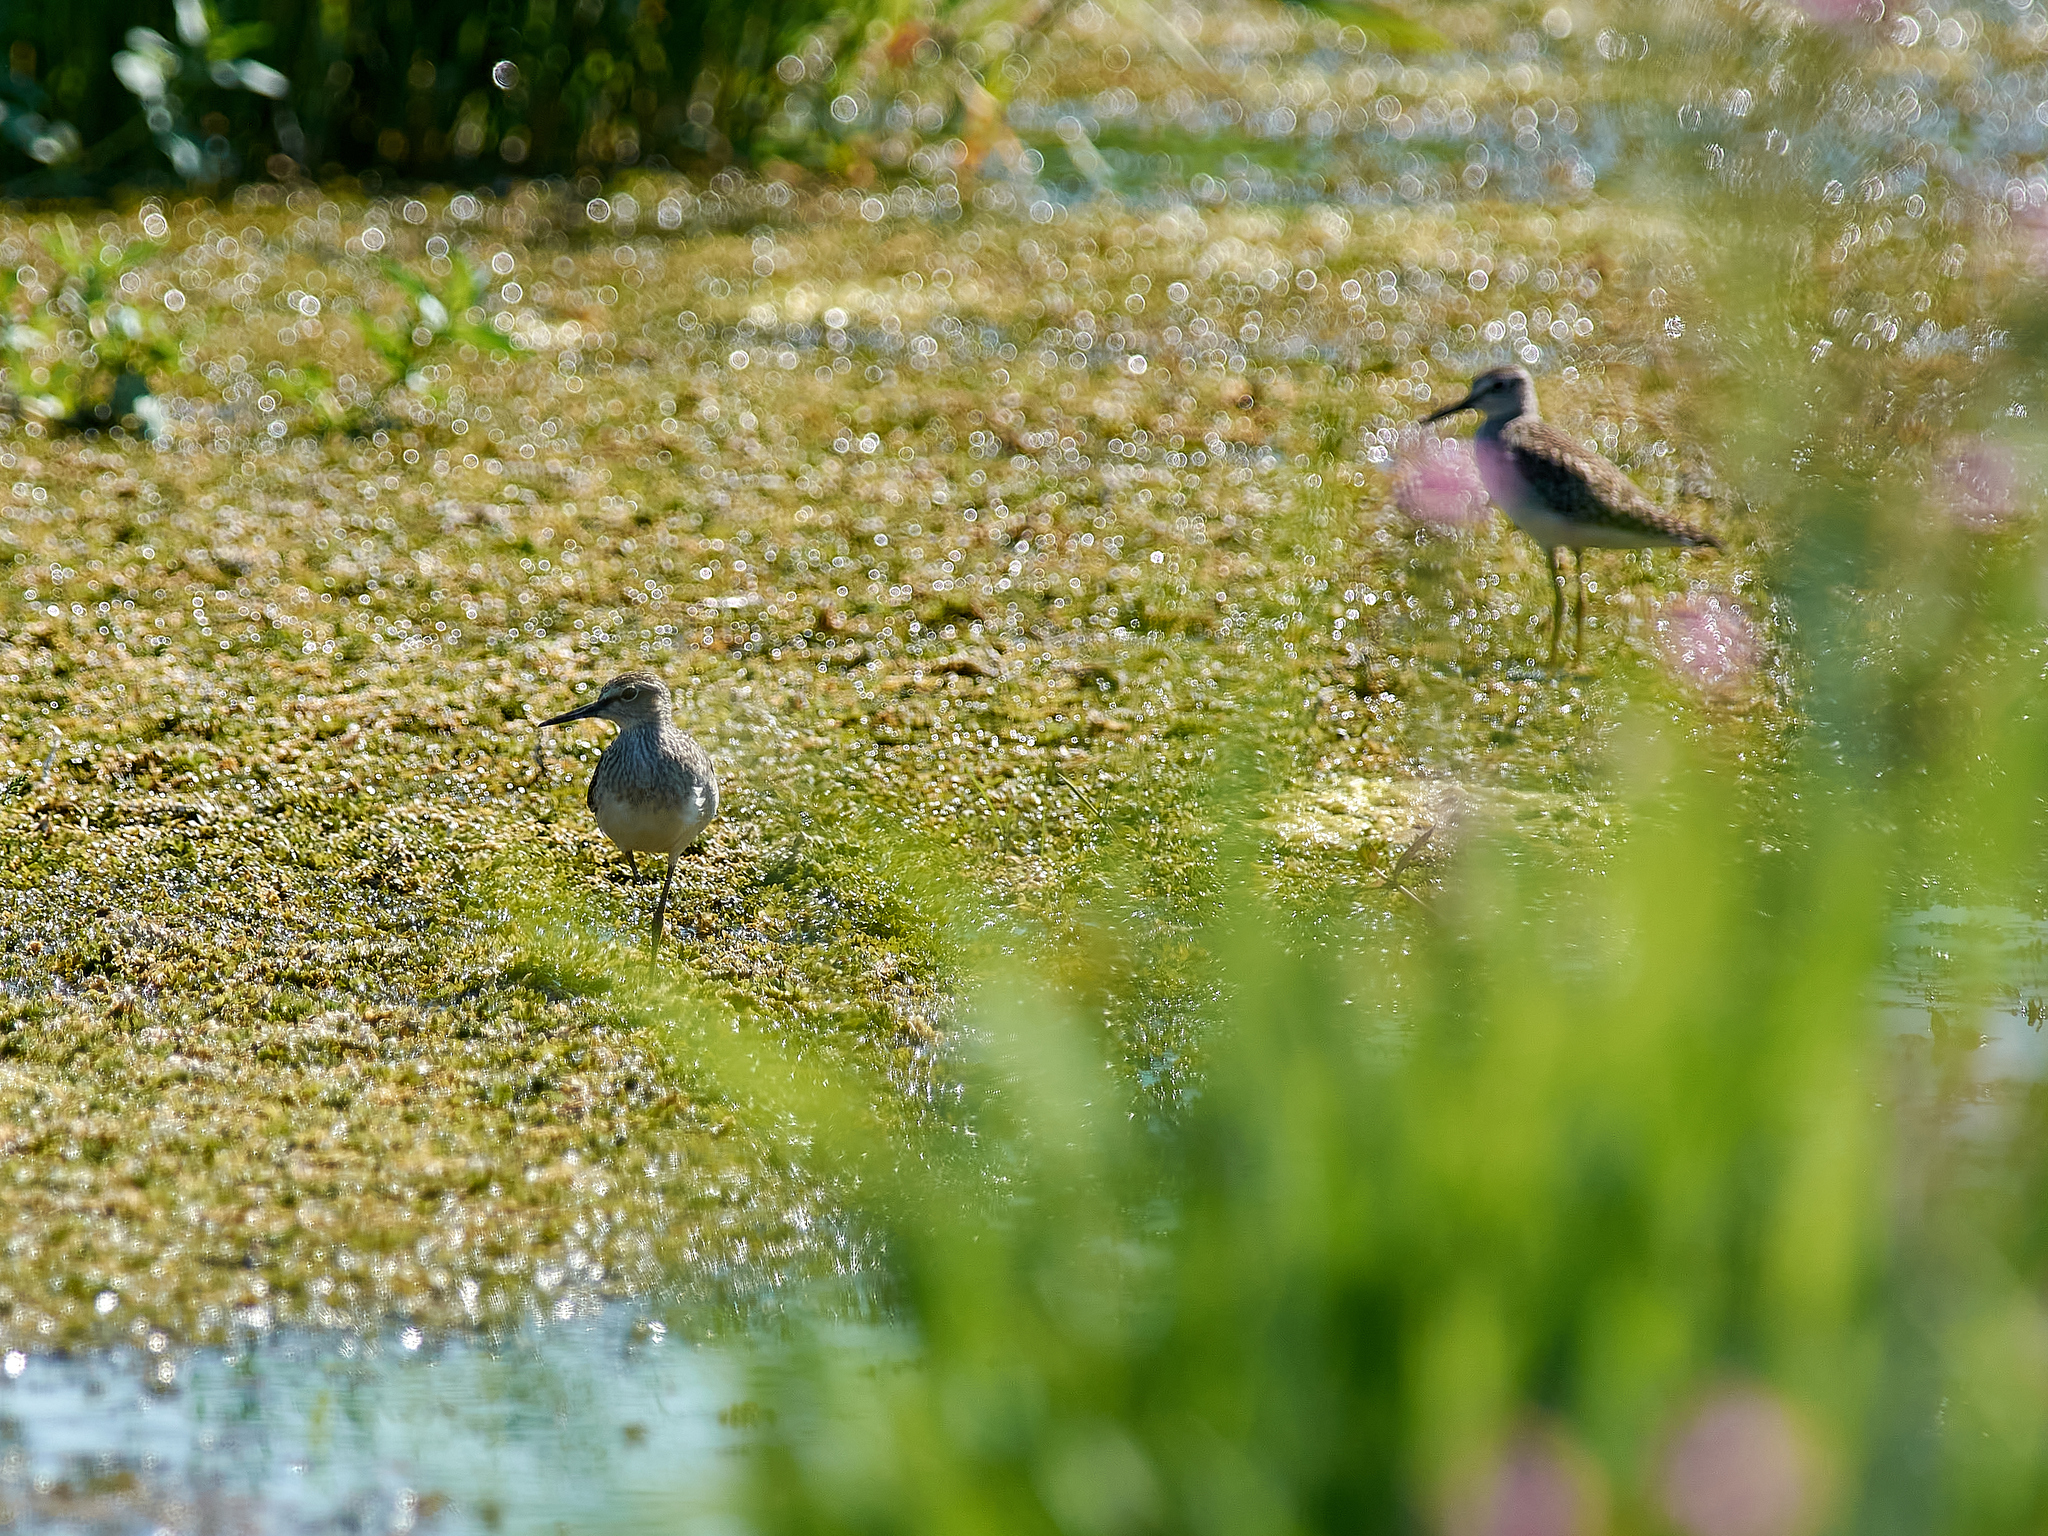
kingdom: Animalia
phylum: Chordata
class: Aves
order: Charadriiformes
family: Scolopacidae
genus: Tringa
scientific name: Tringa glareola
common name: Wood sandpiper
